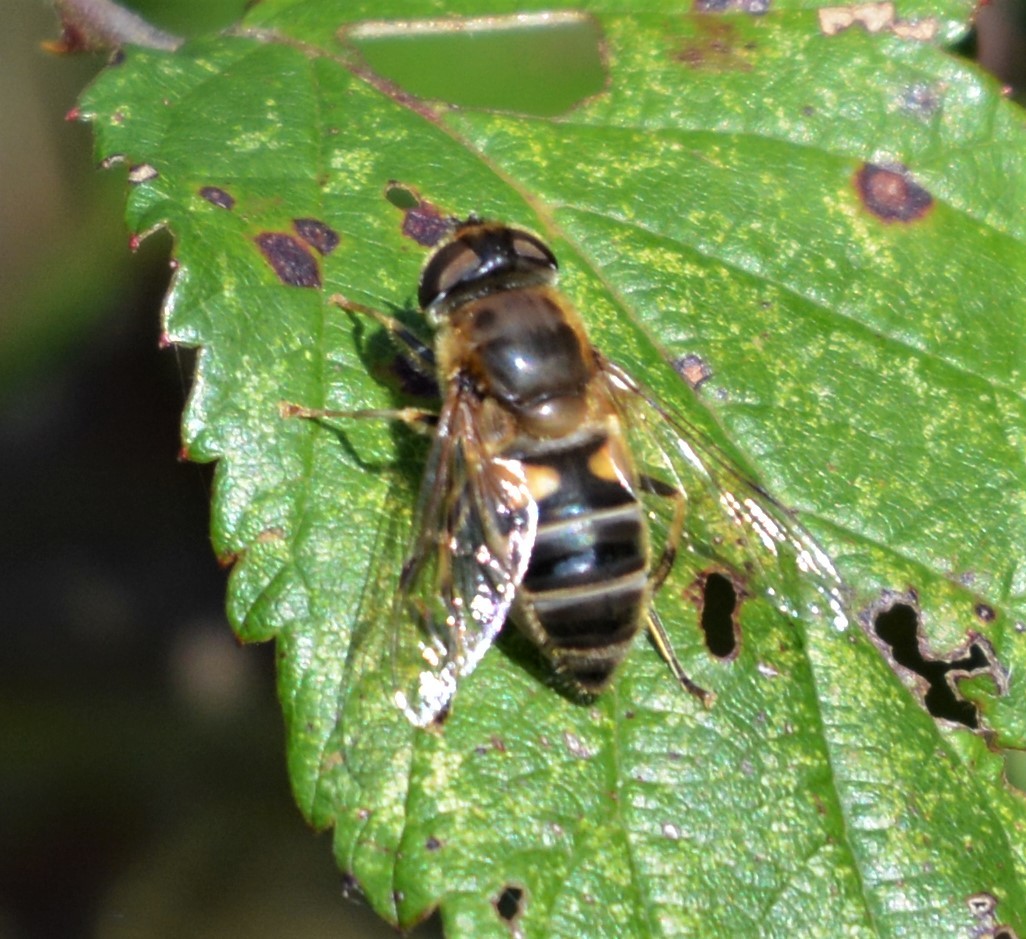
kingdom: Animalia
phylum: Arthropoda
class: Insecta
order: Diptera
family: Syrphidae
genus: Eristalis
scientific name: Eristalis pertinax
